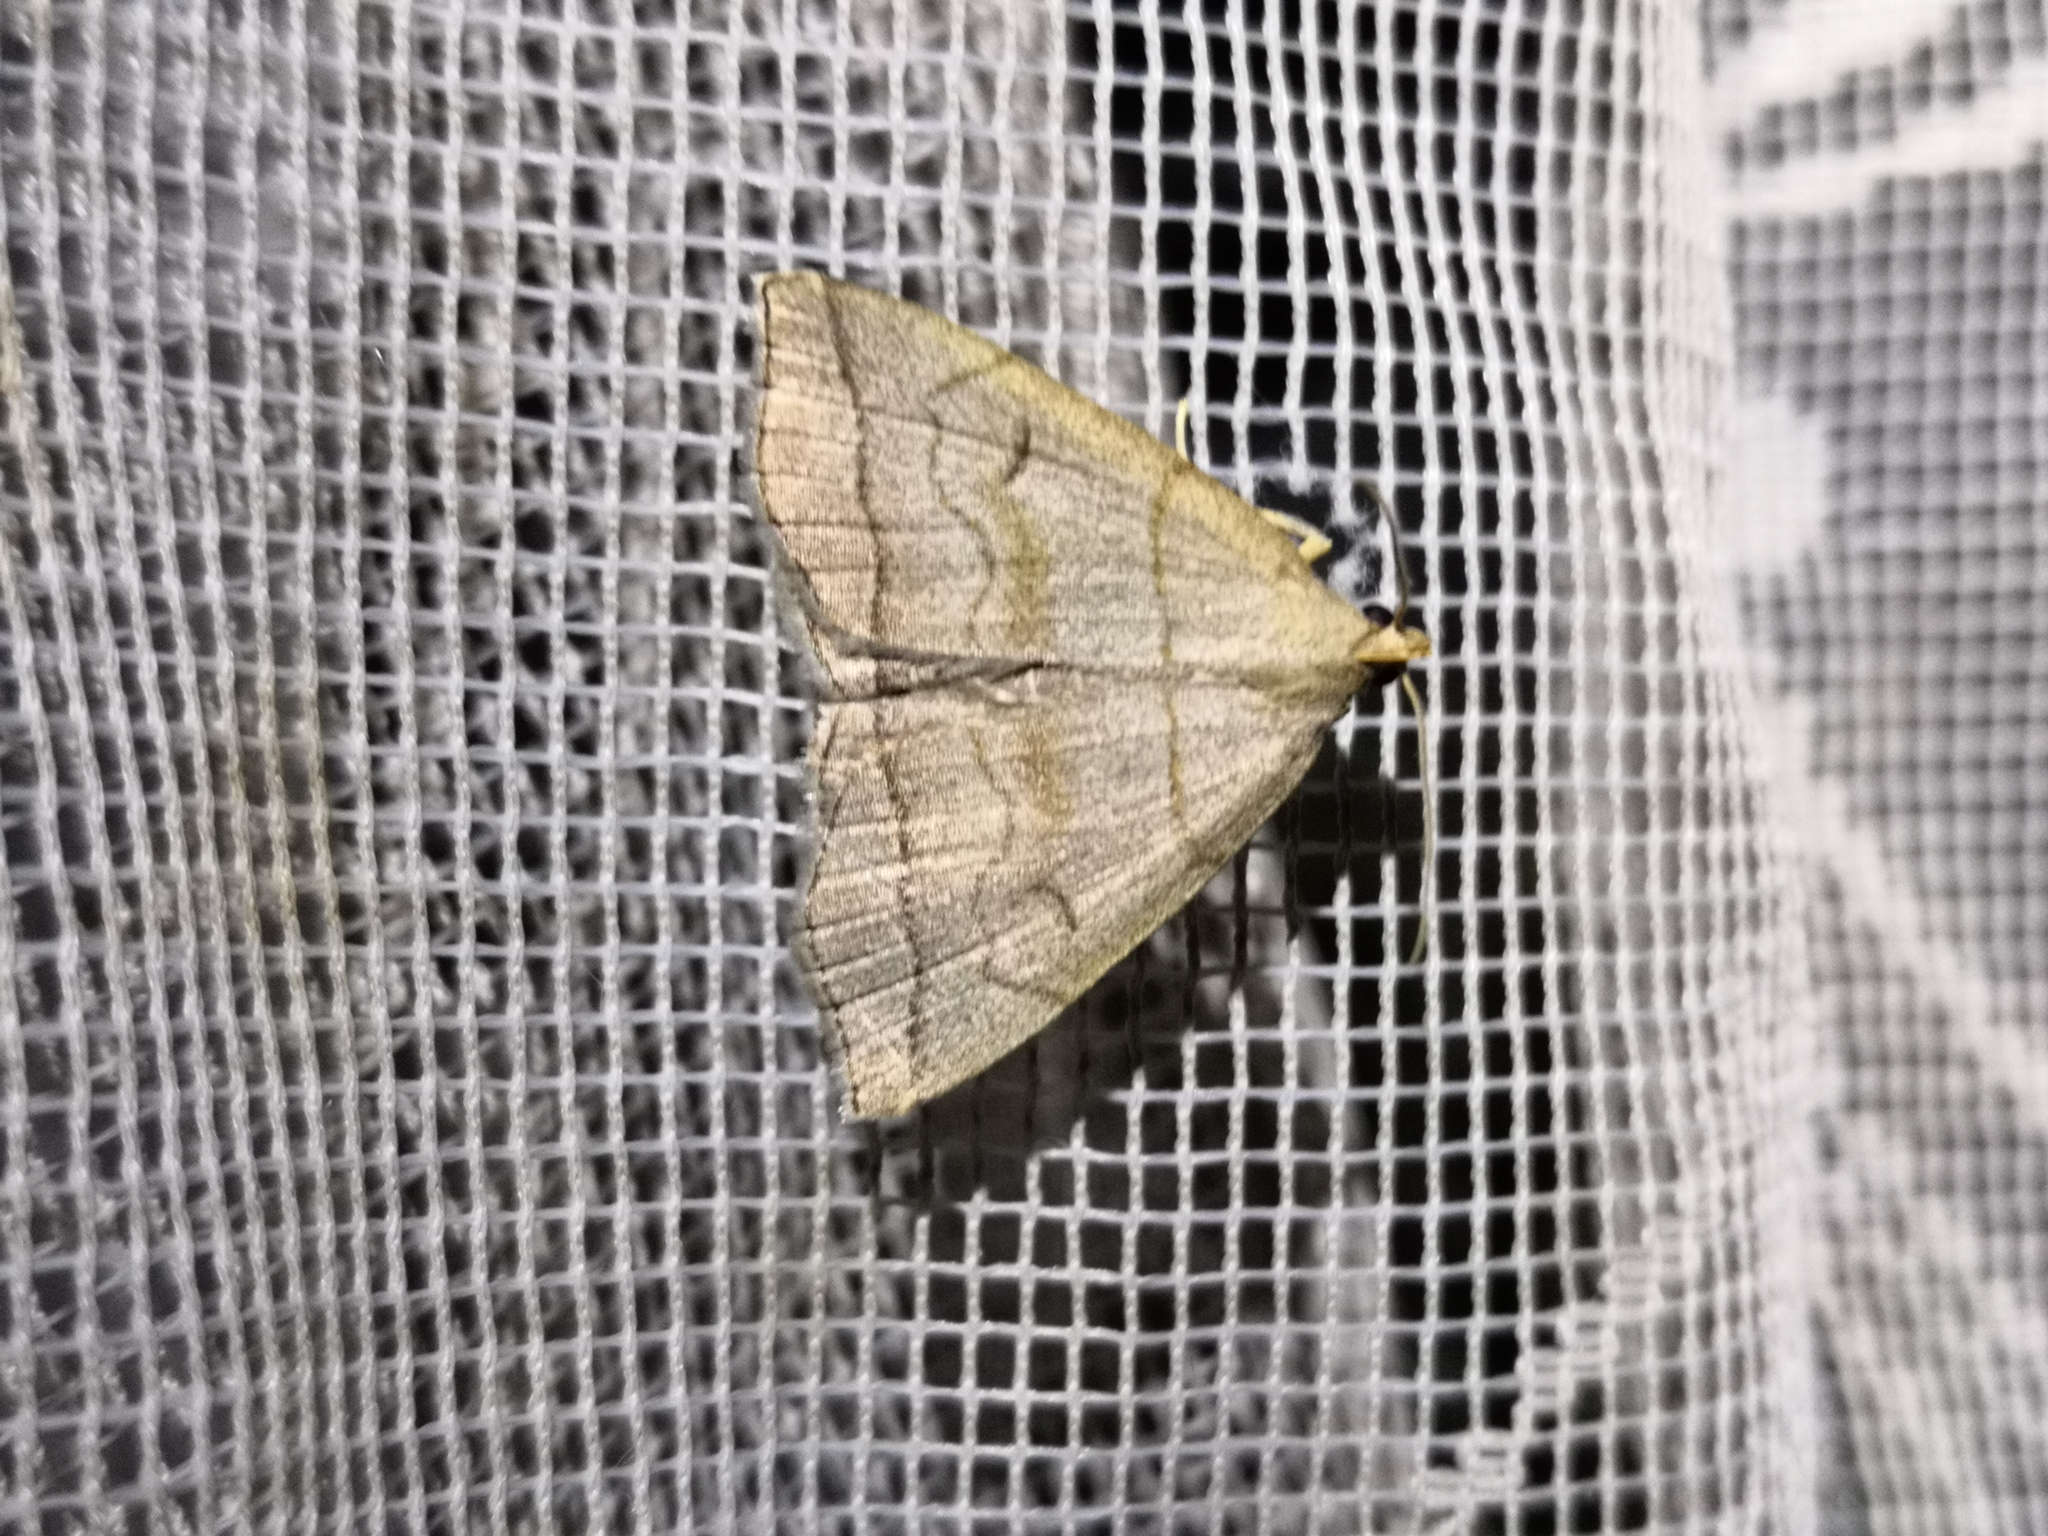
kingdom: Animalia
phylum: Arthropoda
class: Insecta
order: Lepidoptera
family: Erebidae
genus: Herminia
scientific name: Herminia tarsicrinalis
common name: Shaded fan-foot
